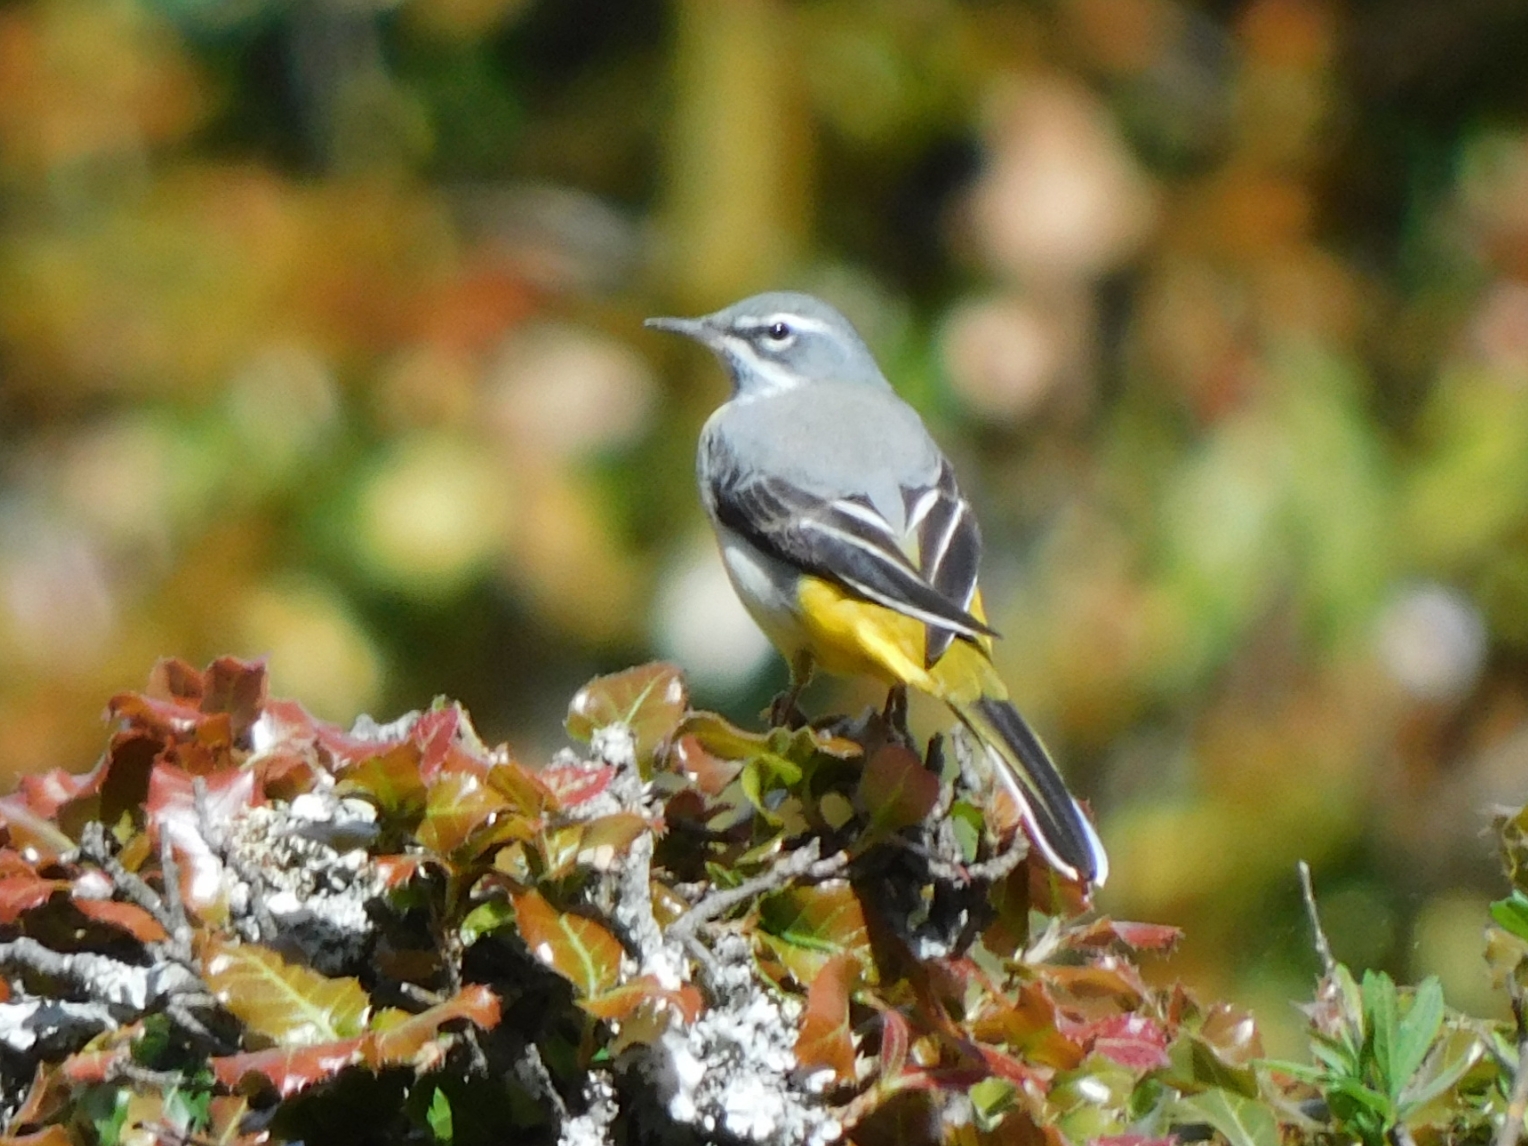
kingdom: Animalia
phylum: Chordata
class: Aves
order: Passeriformes
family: Motacillidae
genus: Motacilla
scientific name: Motacilla cinerea
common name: Grey wagtail
